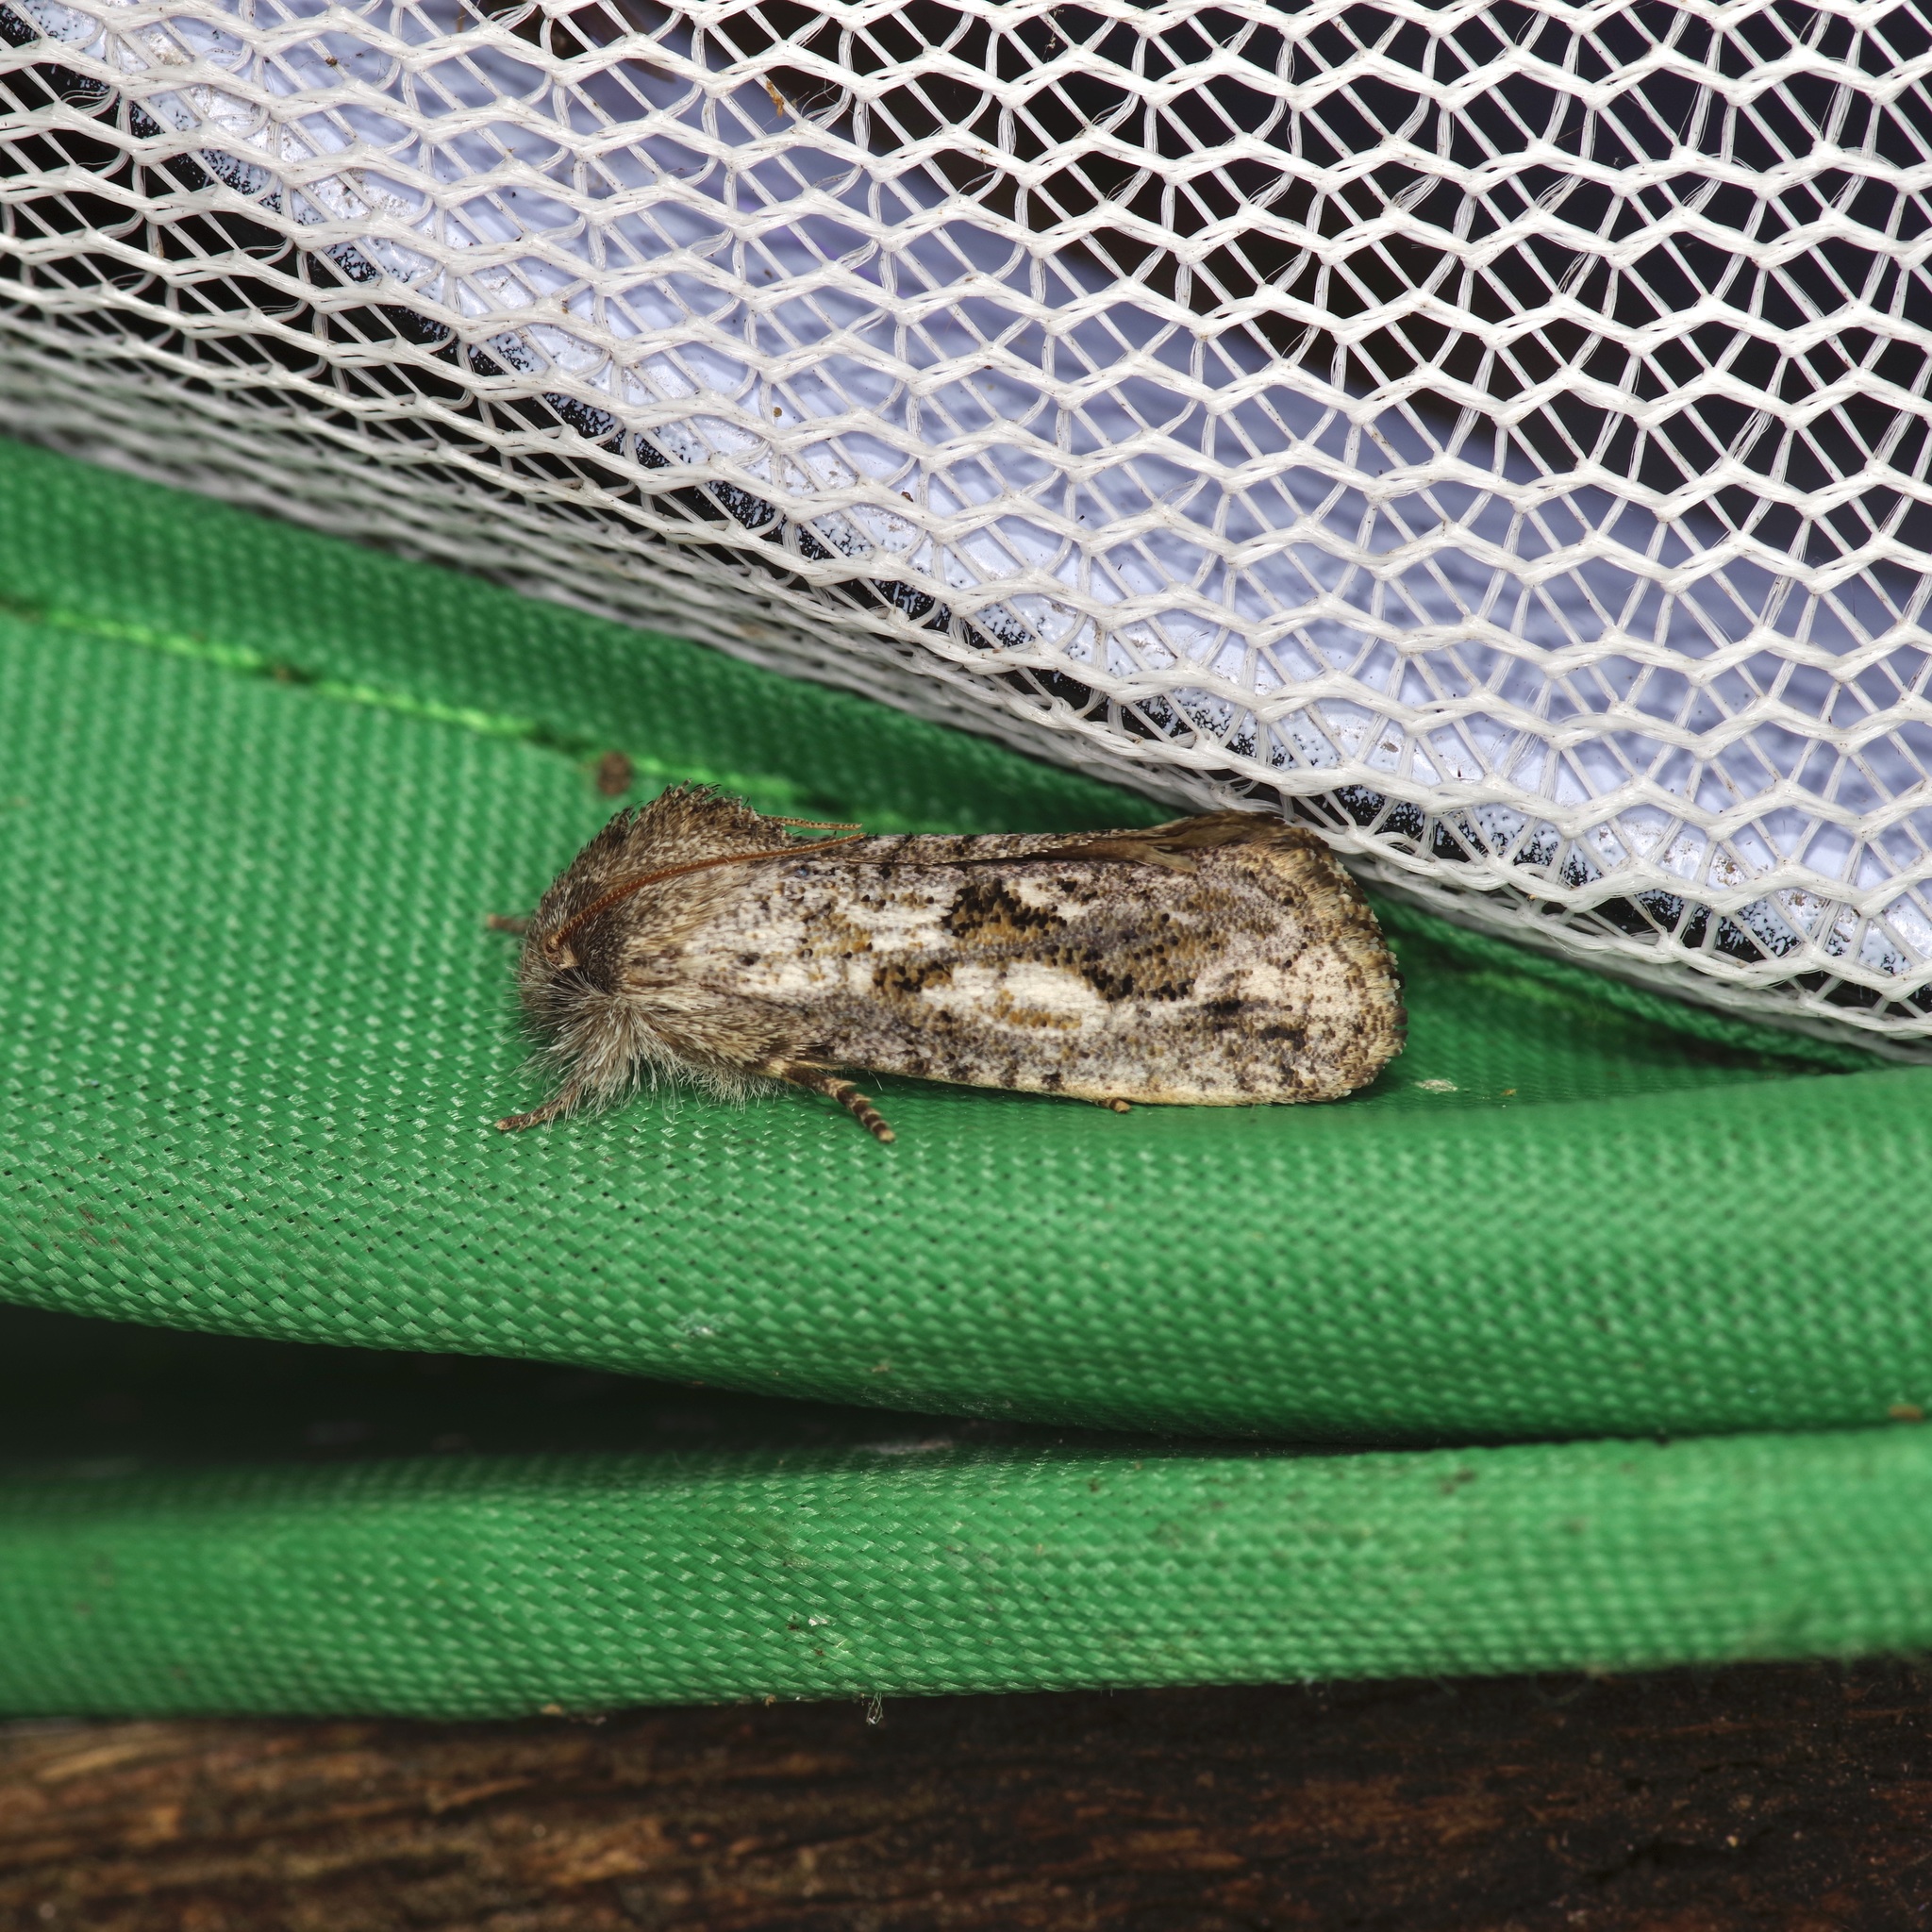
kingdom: Animalia
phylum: Arthropoda
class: Insecta
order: Lepidoptera
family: Tineidae
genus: Acrolophus
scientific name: Acrolophus griseus
